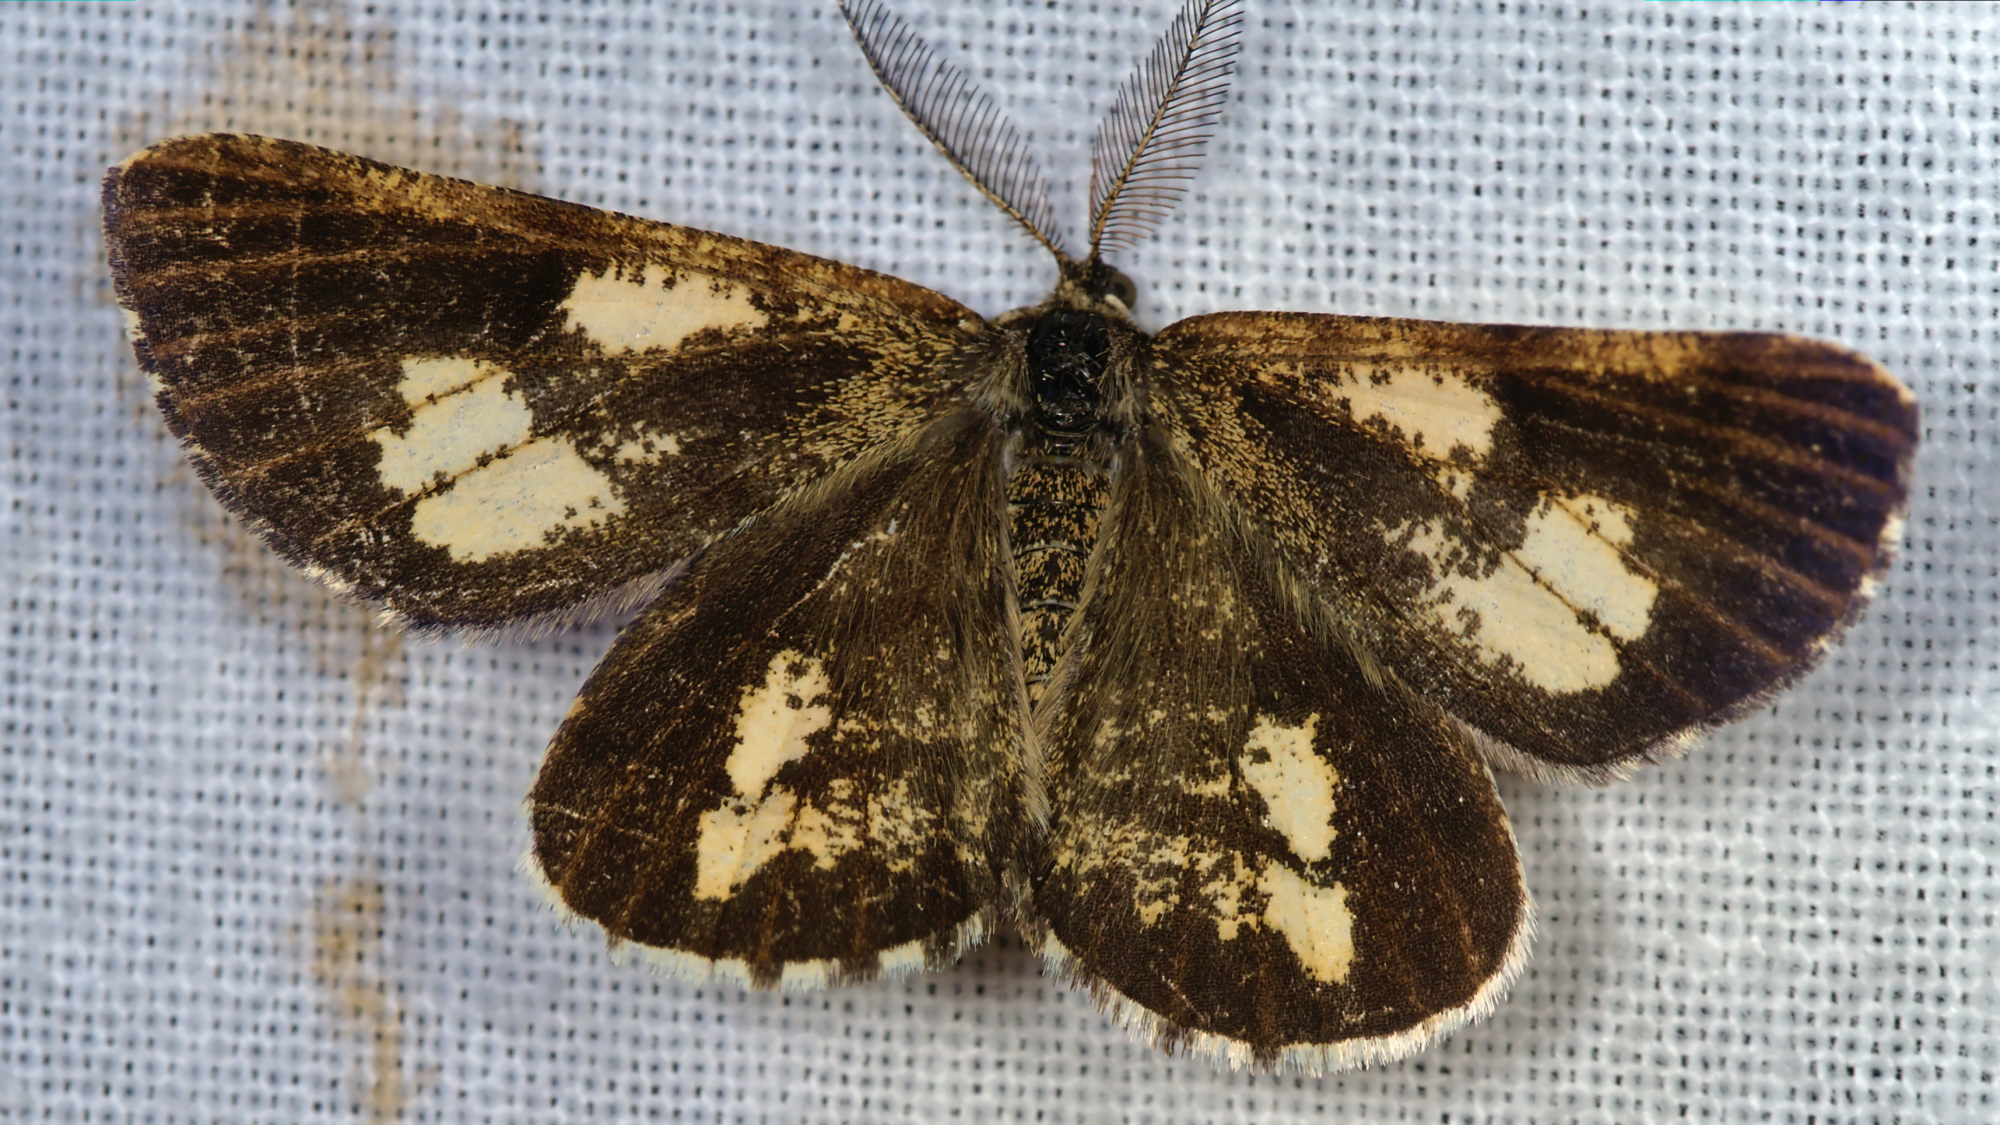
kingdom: Animalia
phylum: Arthropoda
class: Insecta
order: Lepidoptera
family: Geometridae
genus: Bupalus
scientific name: Bupalus piniaria
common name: Bordered white
